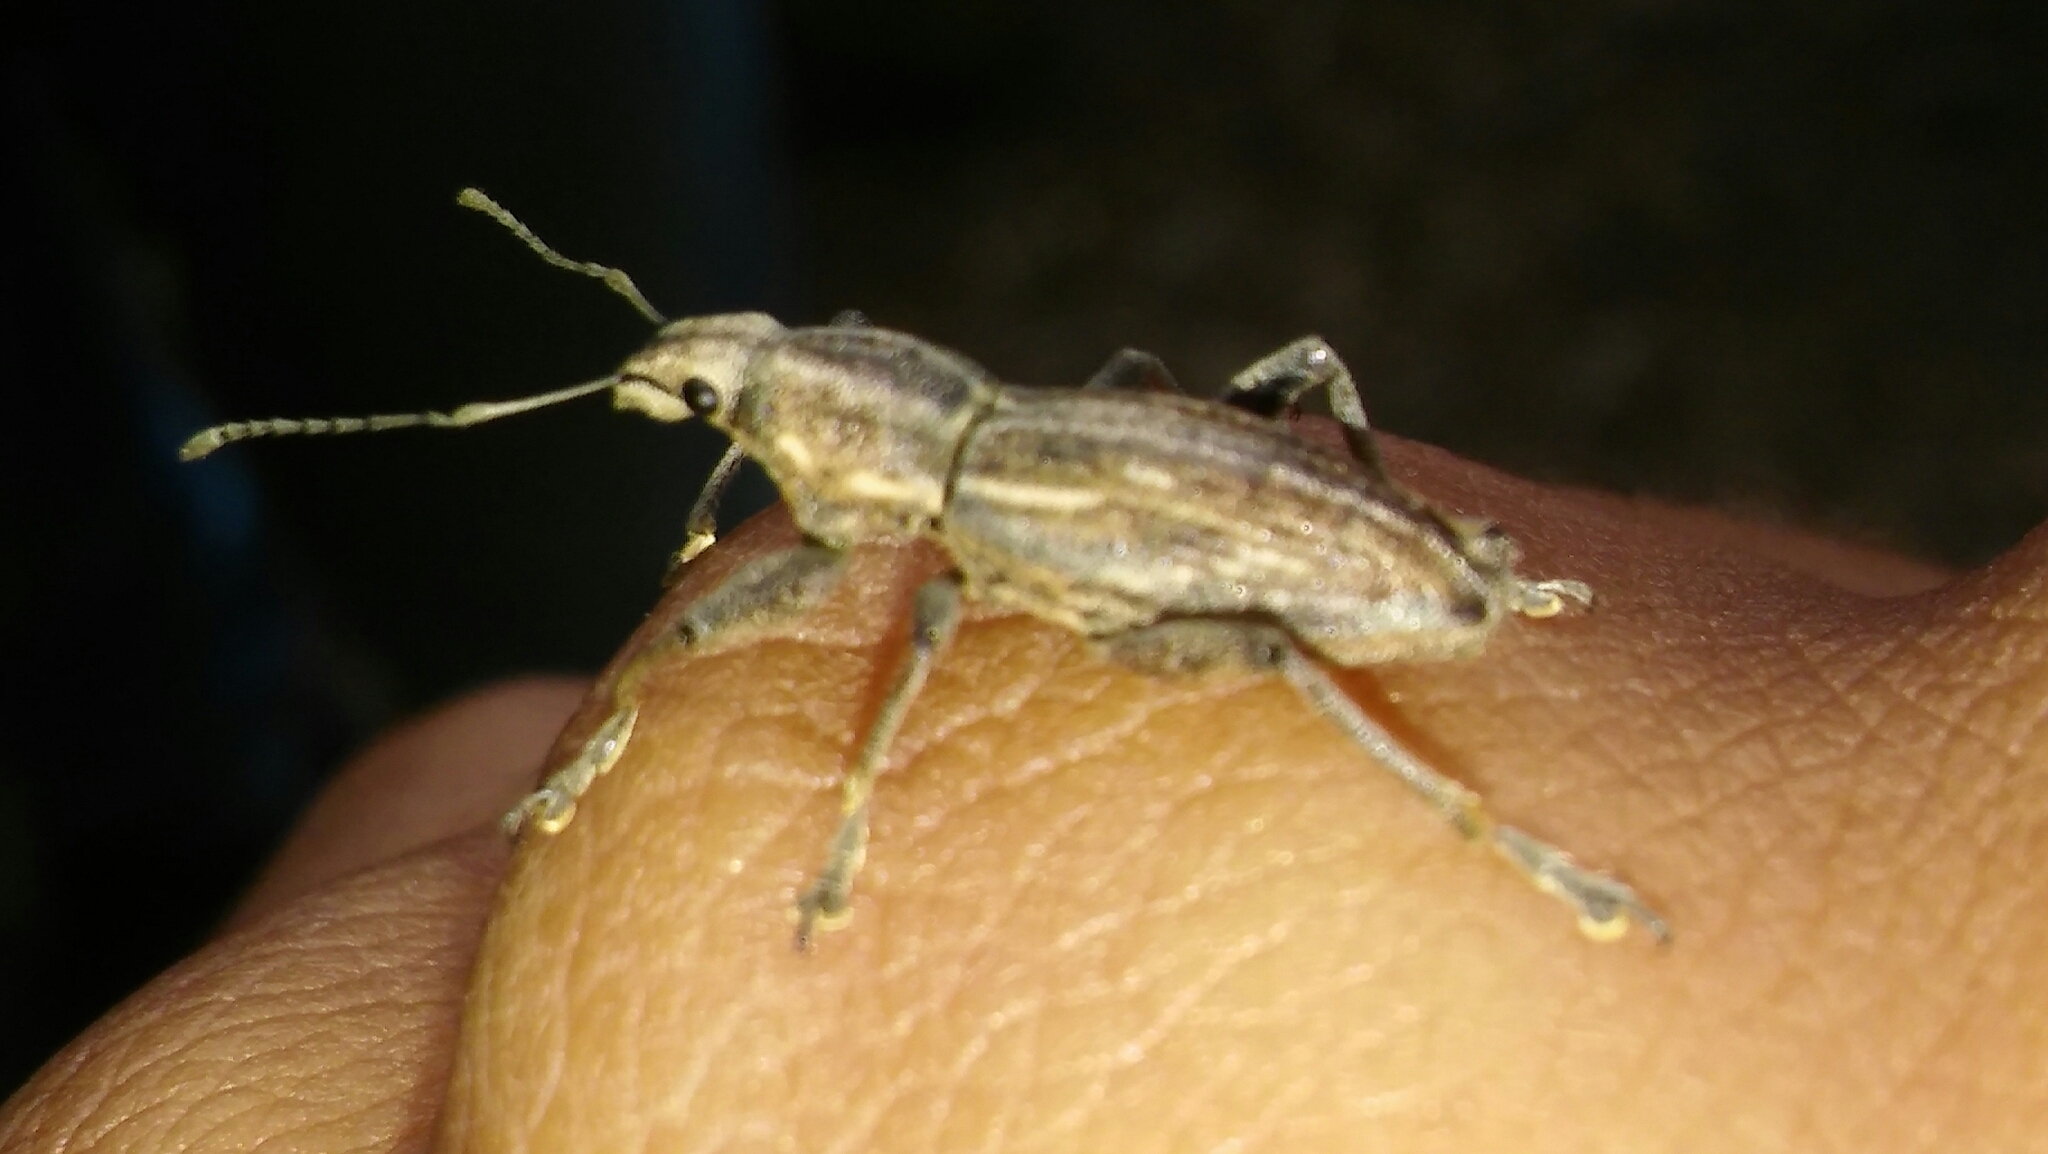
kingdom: Animalia
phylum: Arthropoda
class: Insecta
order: Coleoptera
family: Curculionidae
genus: Naupactus
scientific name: Naupactus xanthographus
